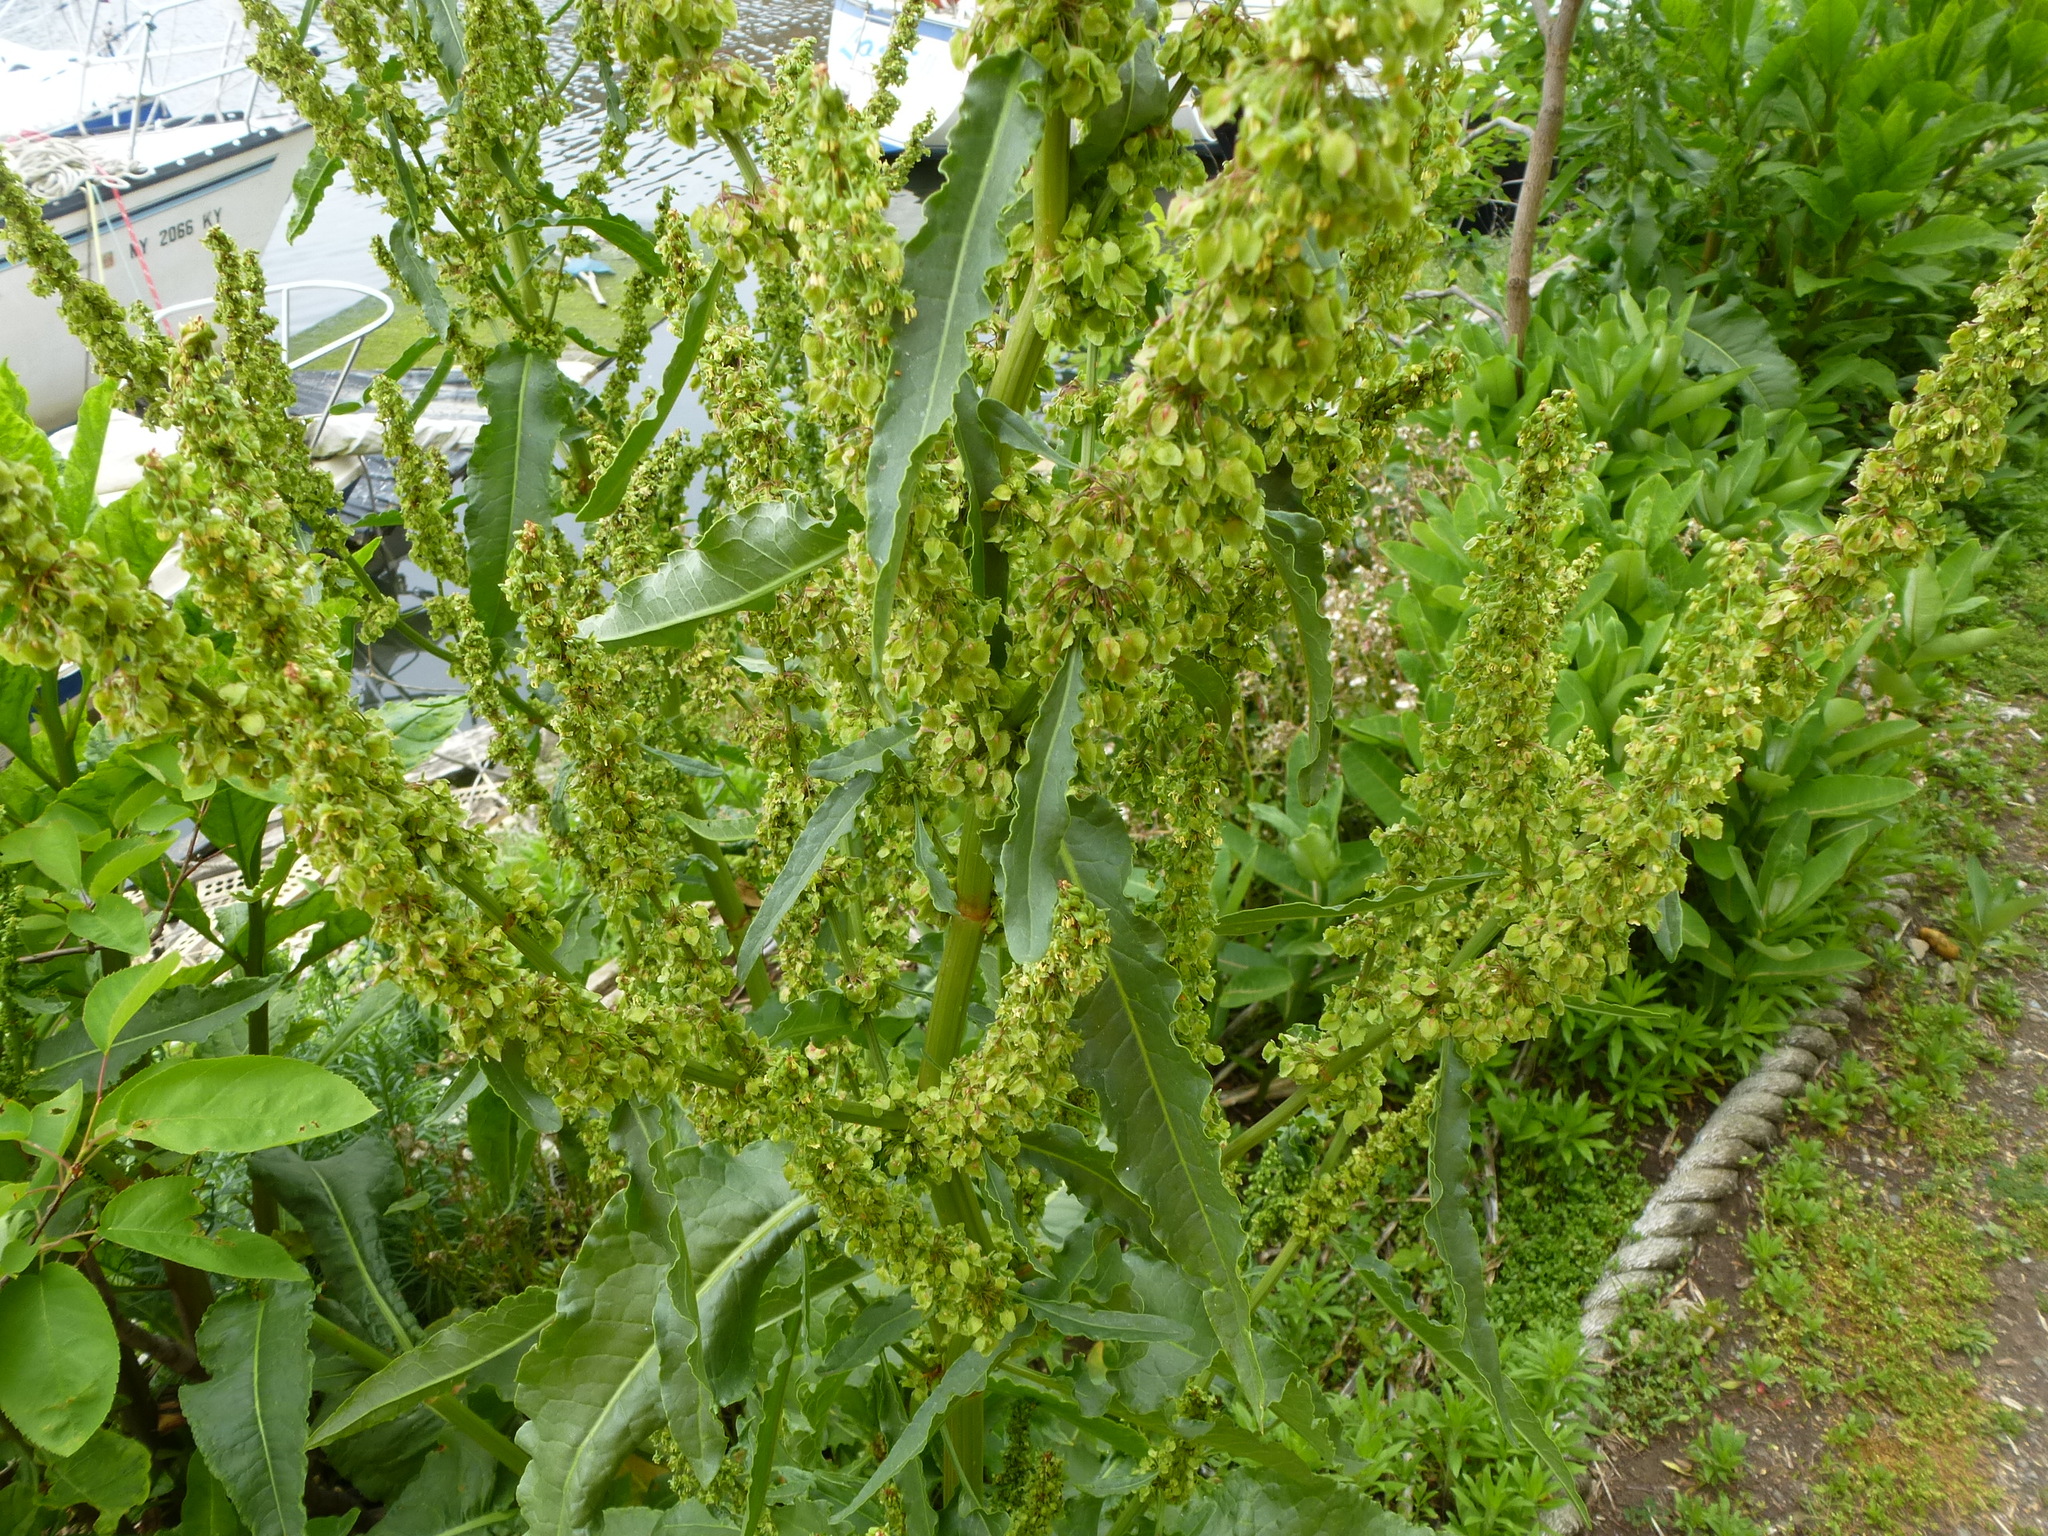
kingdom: Plantae
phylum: Tracheophyta
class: Magnoliopsida
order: Caryophyllales
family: Polygonaceae
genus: Rumex
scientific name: Rumex crispus
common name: Curled dock
